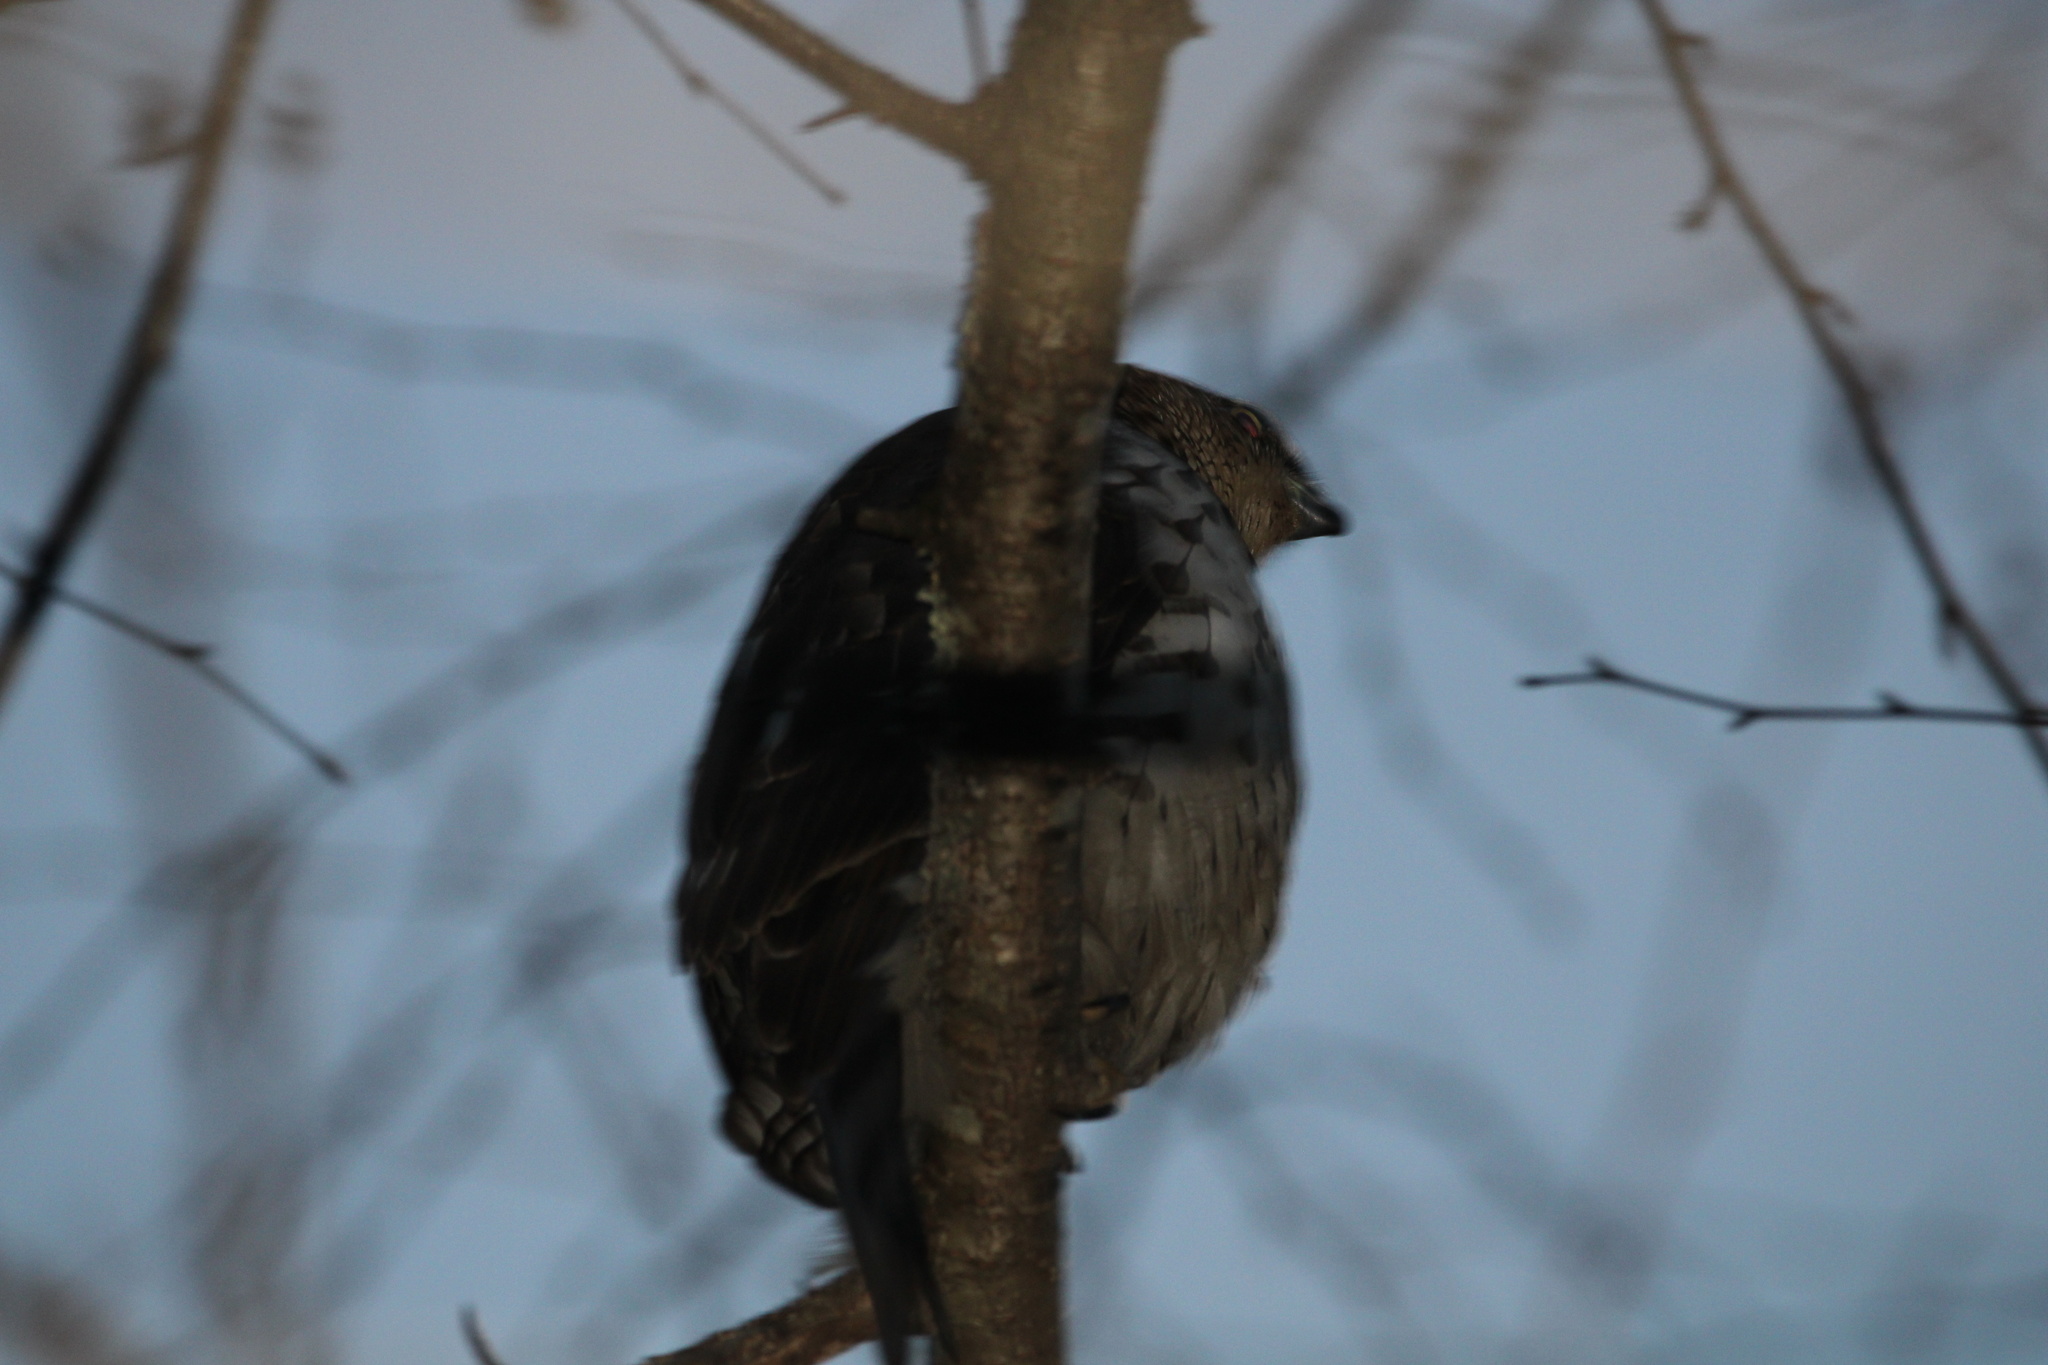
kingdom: Animalia
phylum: Chordata
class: Aves
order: Accipitriformes
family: Accipitridae
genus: Accipiter
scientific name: Accipiter
